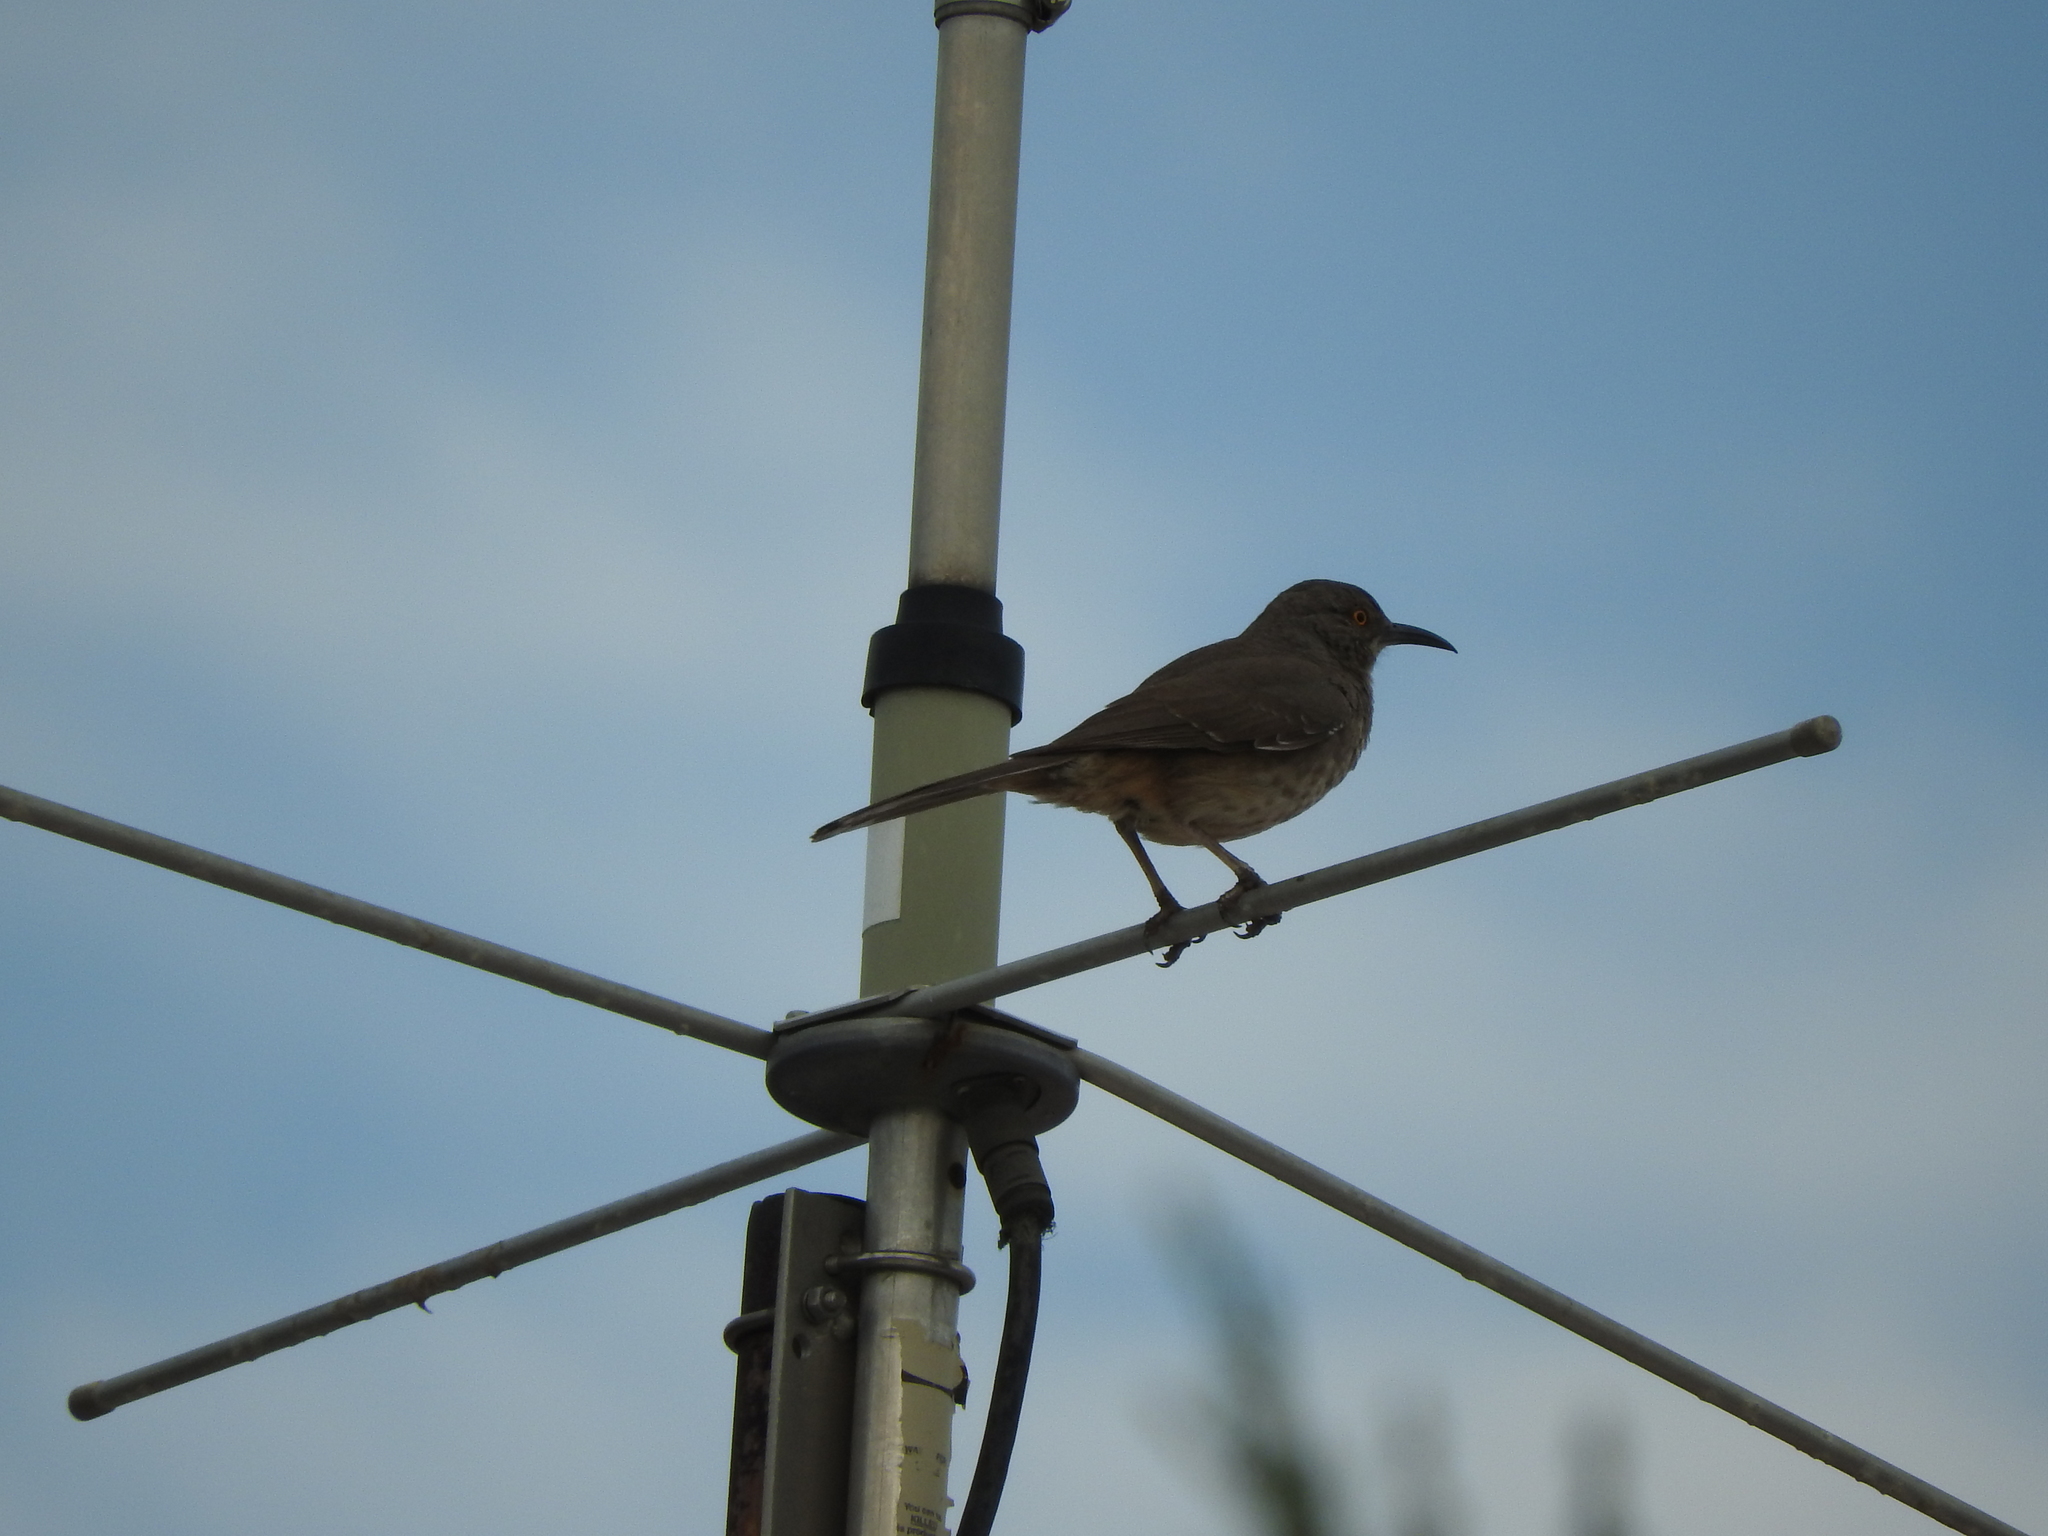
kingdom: Animalia
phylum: Chordata
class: Aves
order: Passeriformes
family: Mimidae
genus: Toxostoma
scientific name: Toxostoma curvirostre
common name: Curve-billed thrasher
